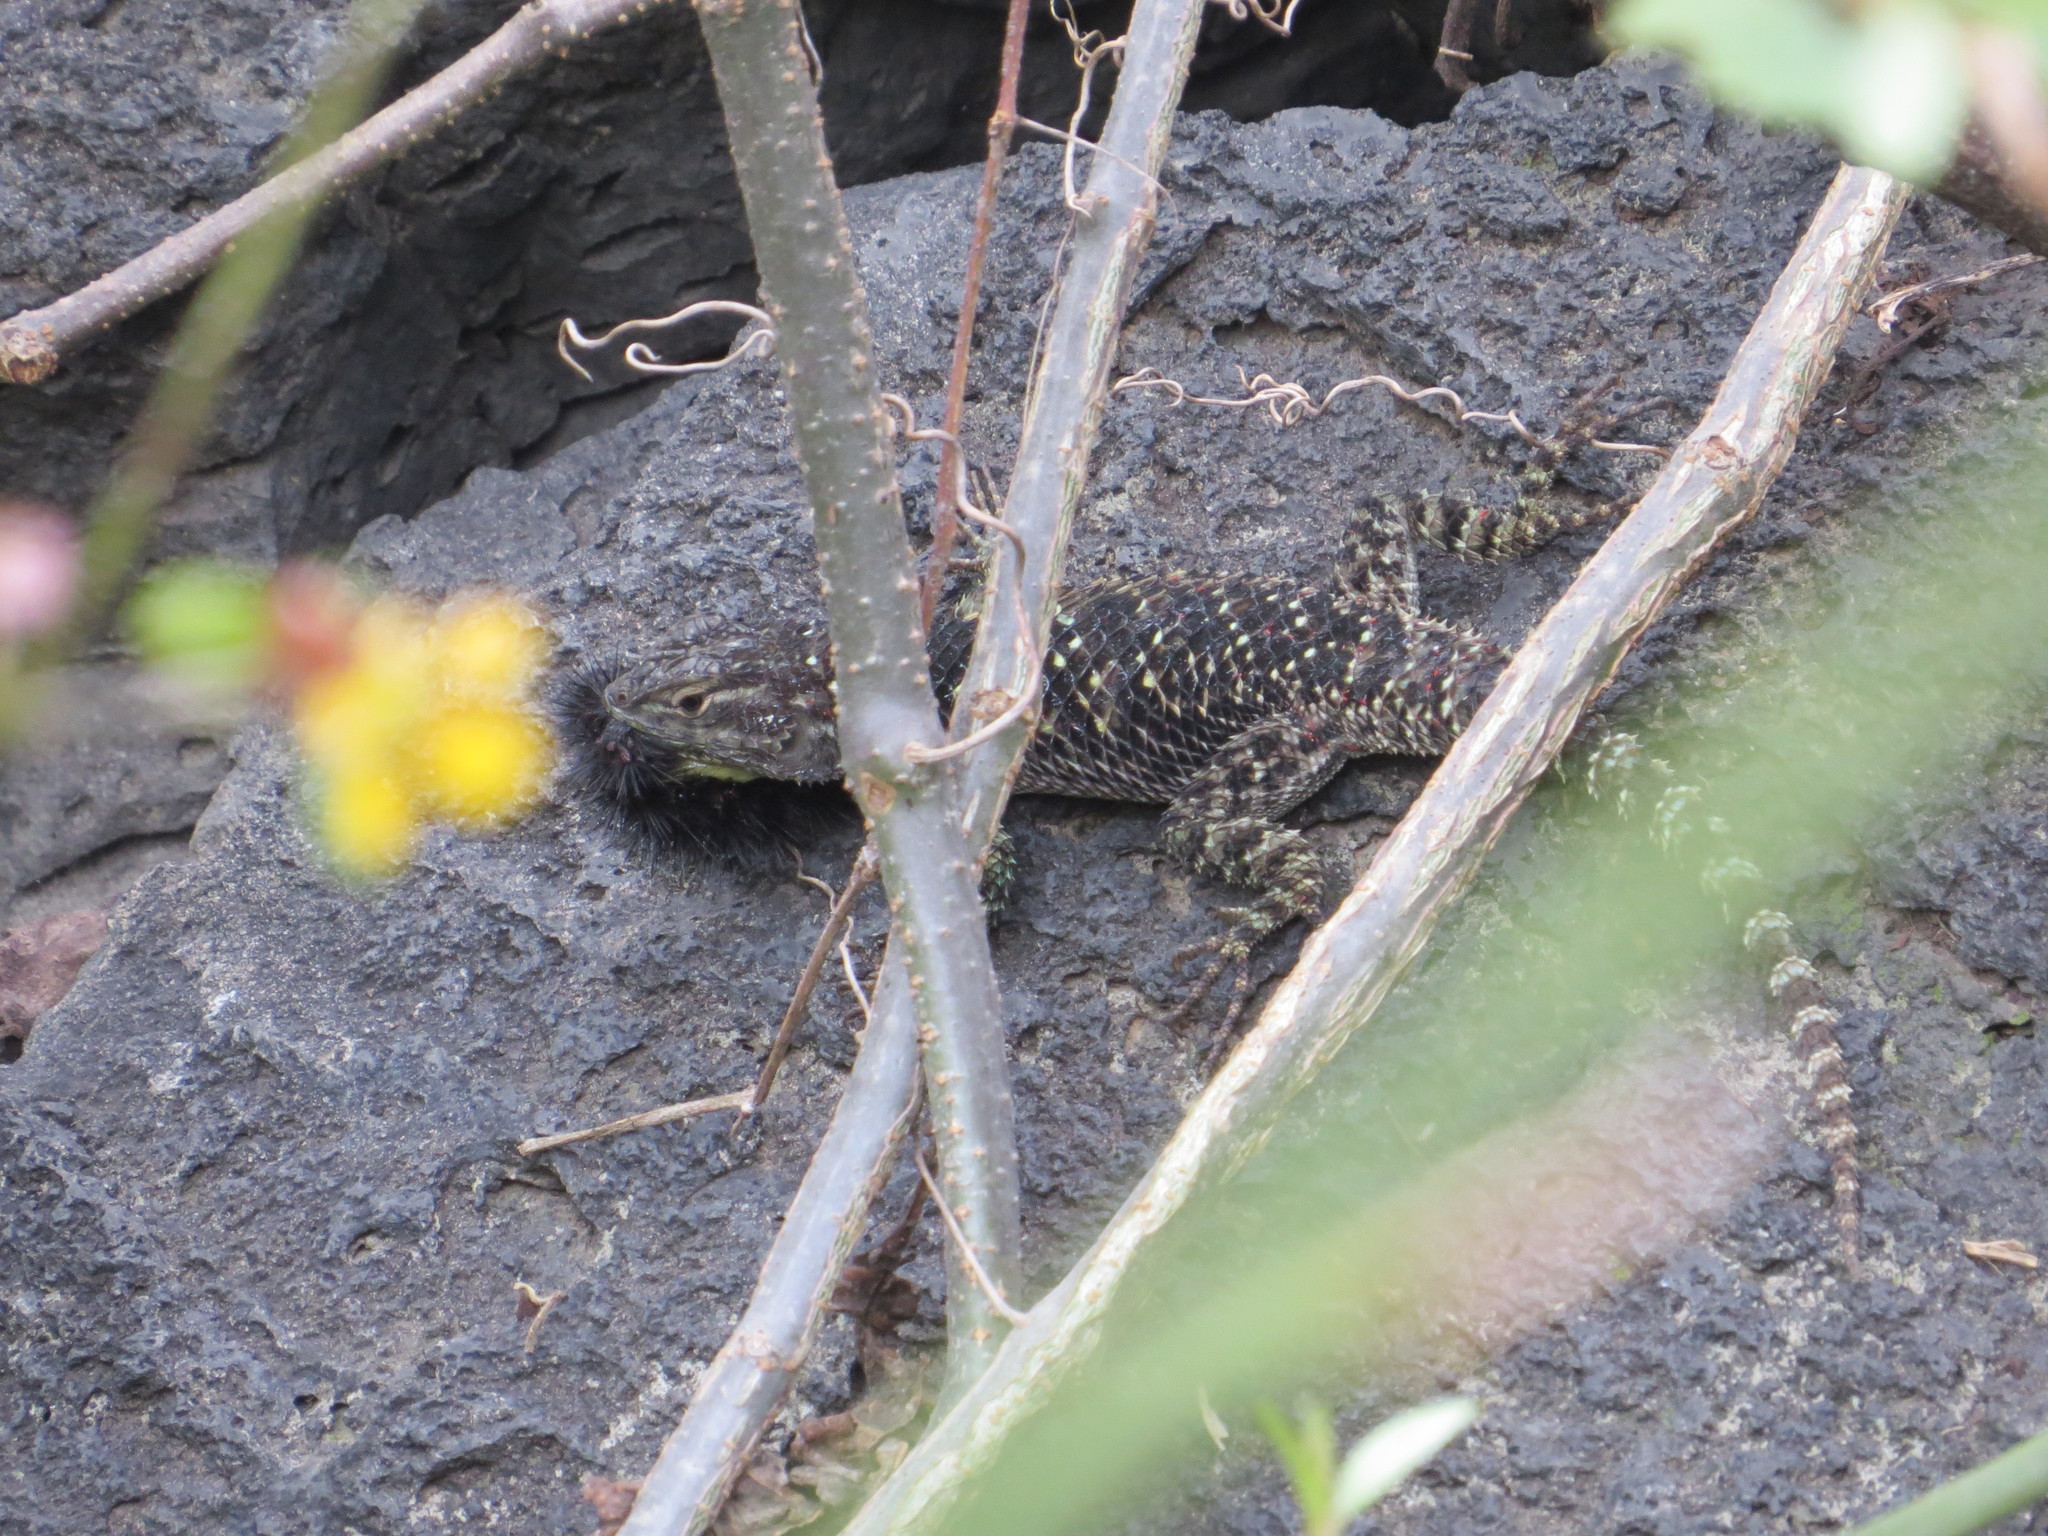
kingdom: Animalia
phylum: Chordata
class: Squamata
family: Phrynosomatidae
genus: Sceloporus
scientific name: Sceloporus torquatus
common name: Central plateau torquate lizard [melanogaster]
